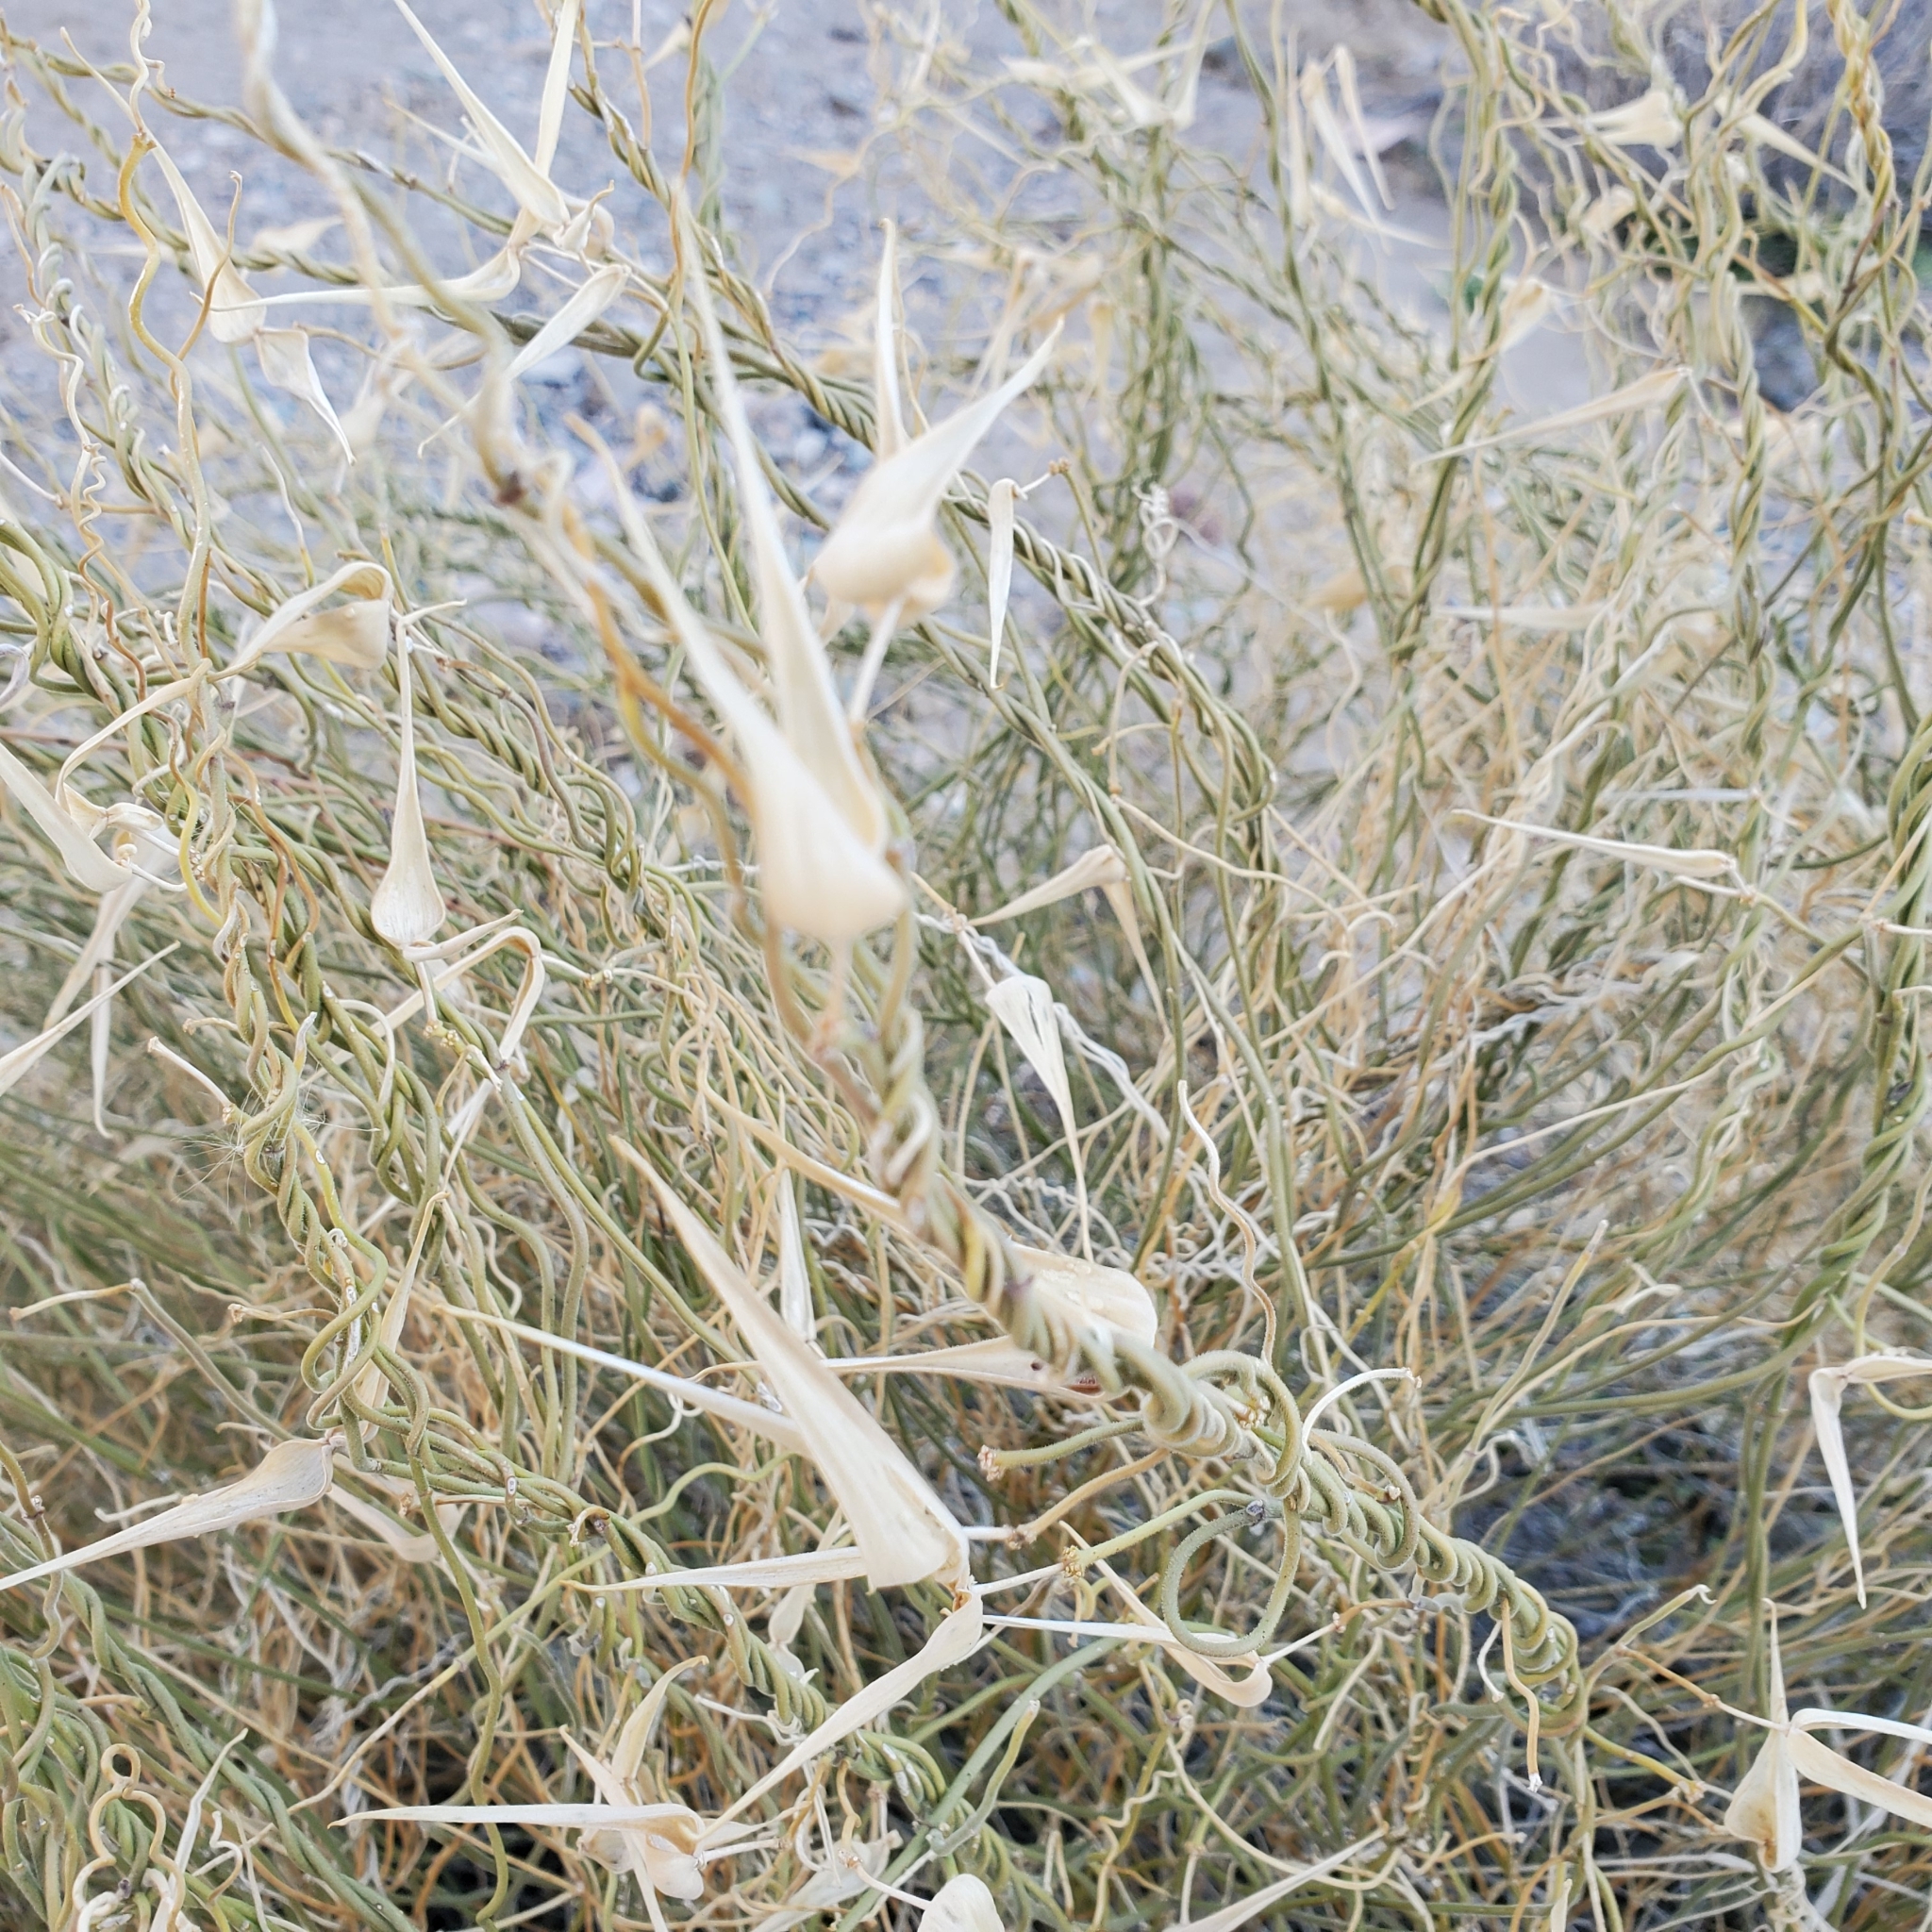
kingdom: Plantae
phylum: Tracheophyta
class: Magnoliopsida
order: Gentianales
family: Apocynaceae
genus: Funastrum
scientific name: Funastrum heterophyllum
